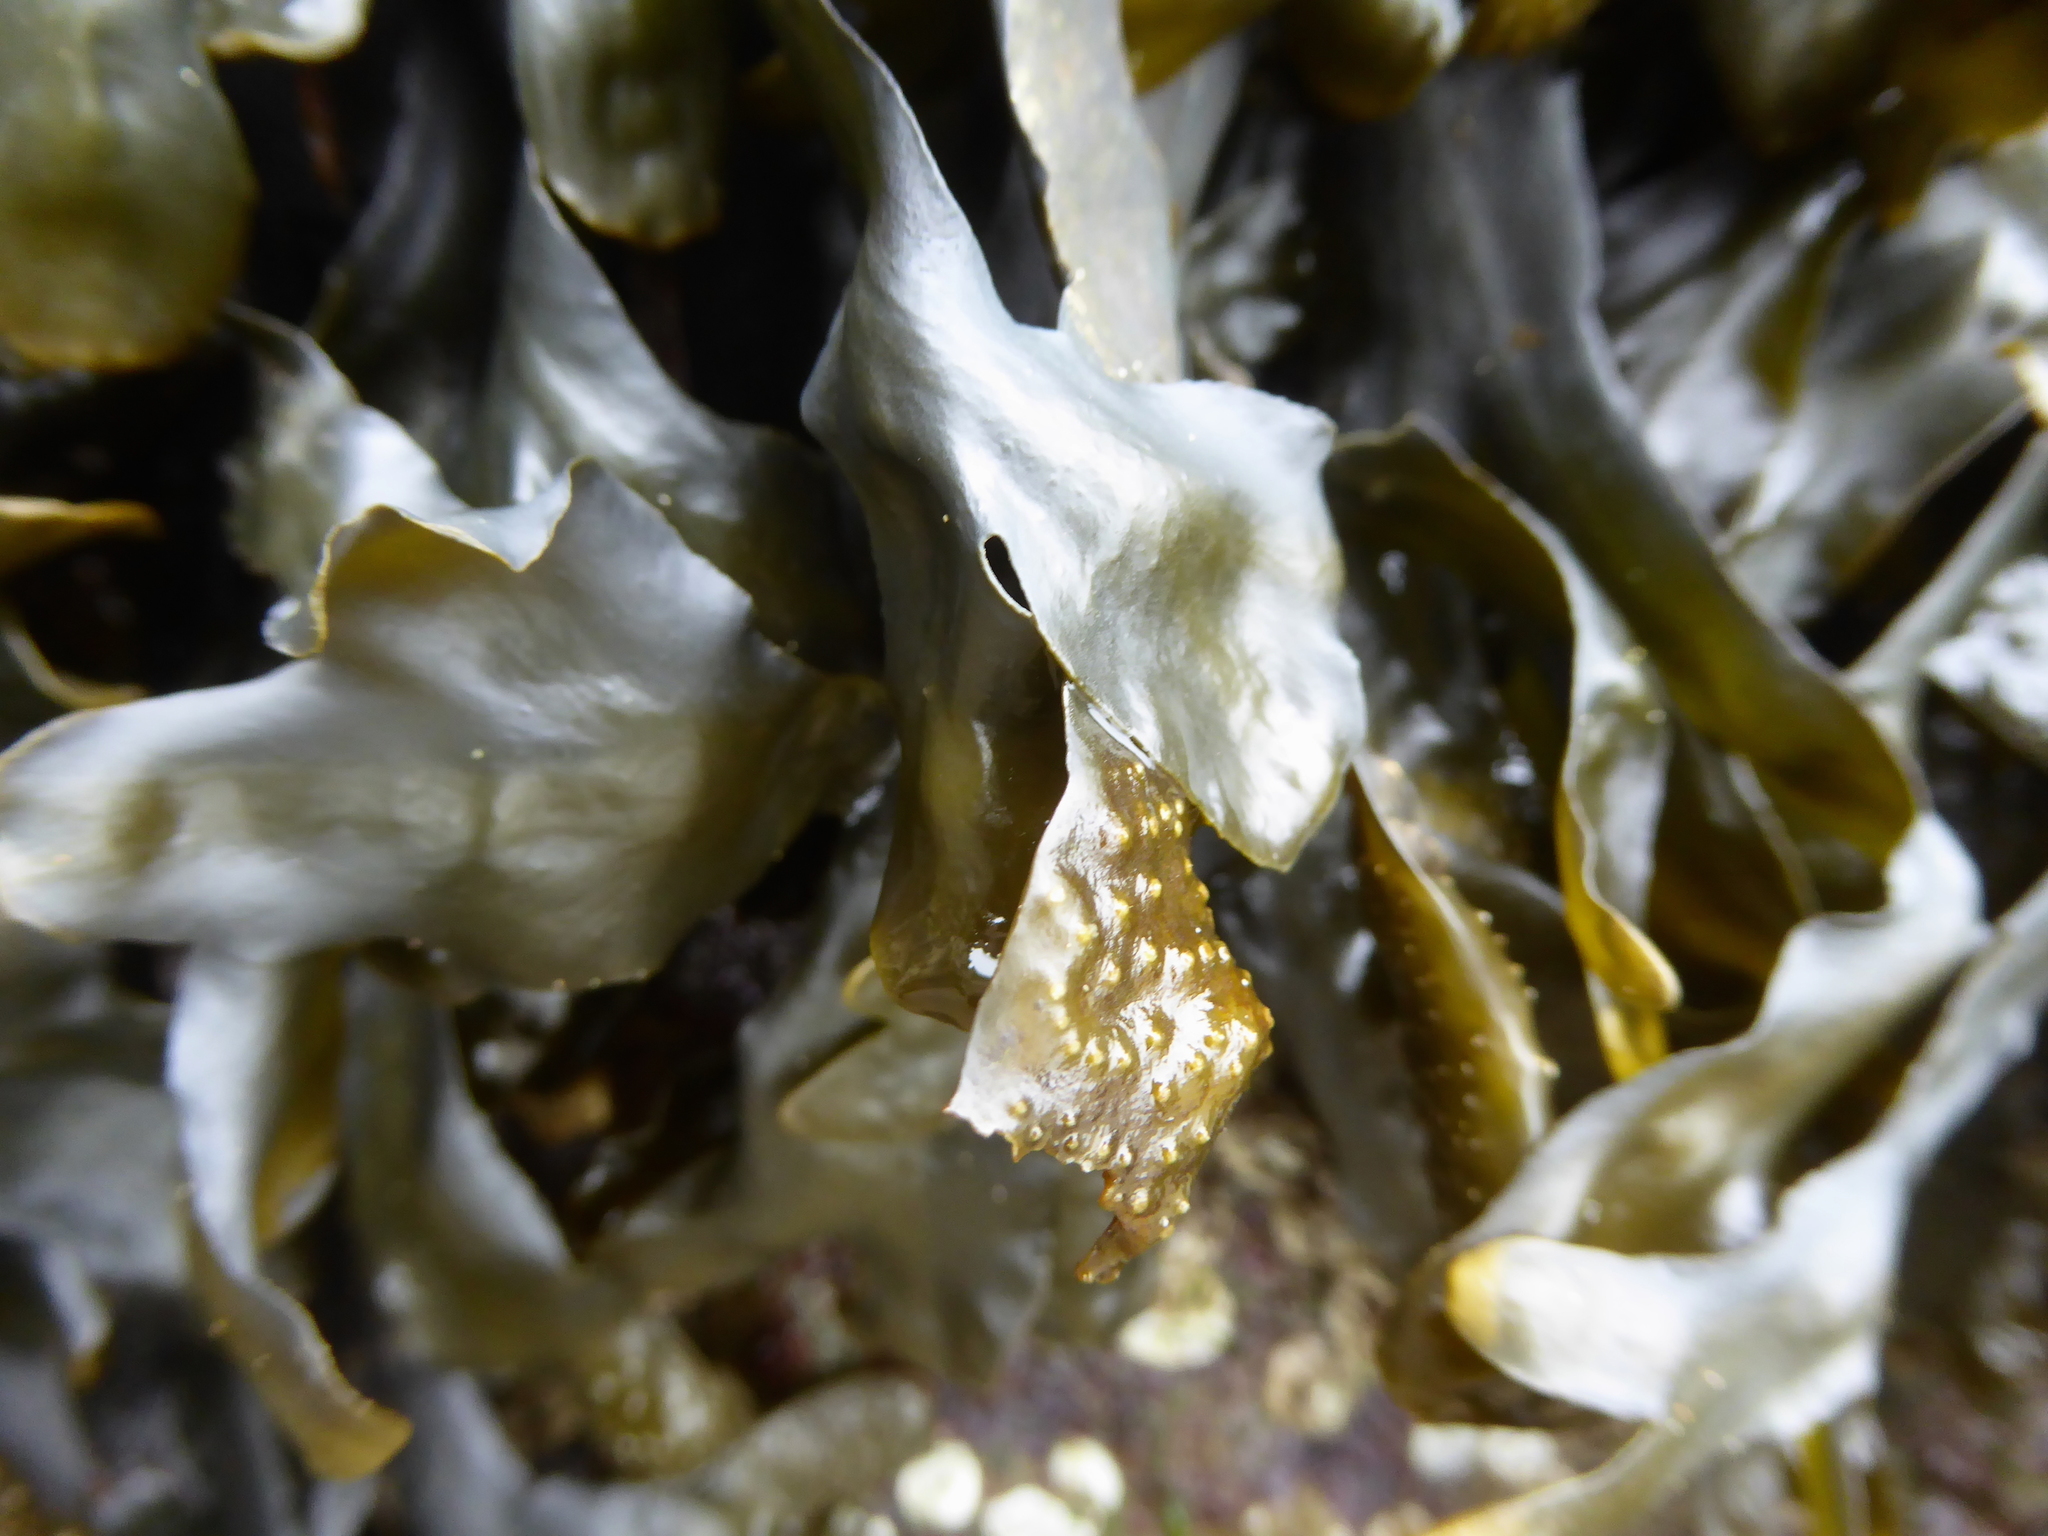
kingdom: Chromista
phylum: Ochrophyta
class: Phaeophyceae
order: Fucales
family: Fucaceae
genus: Fucus
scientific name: Fucus distichus
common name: Rockweed
